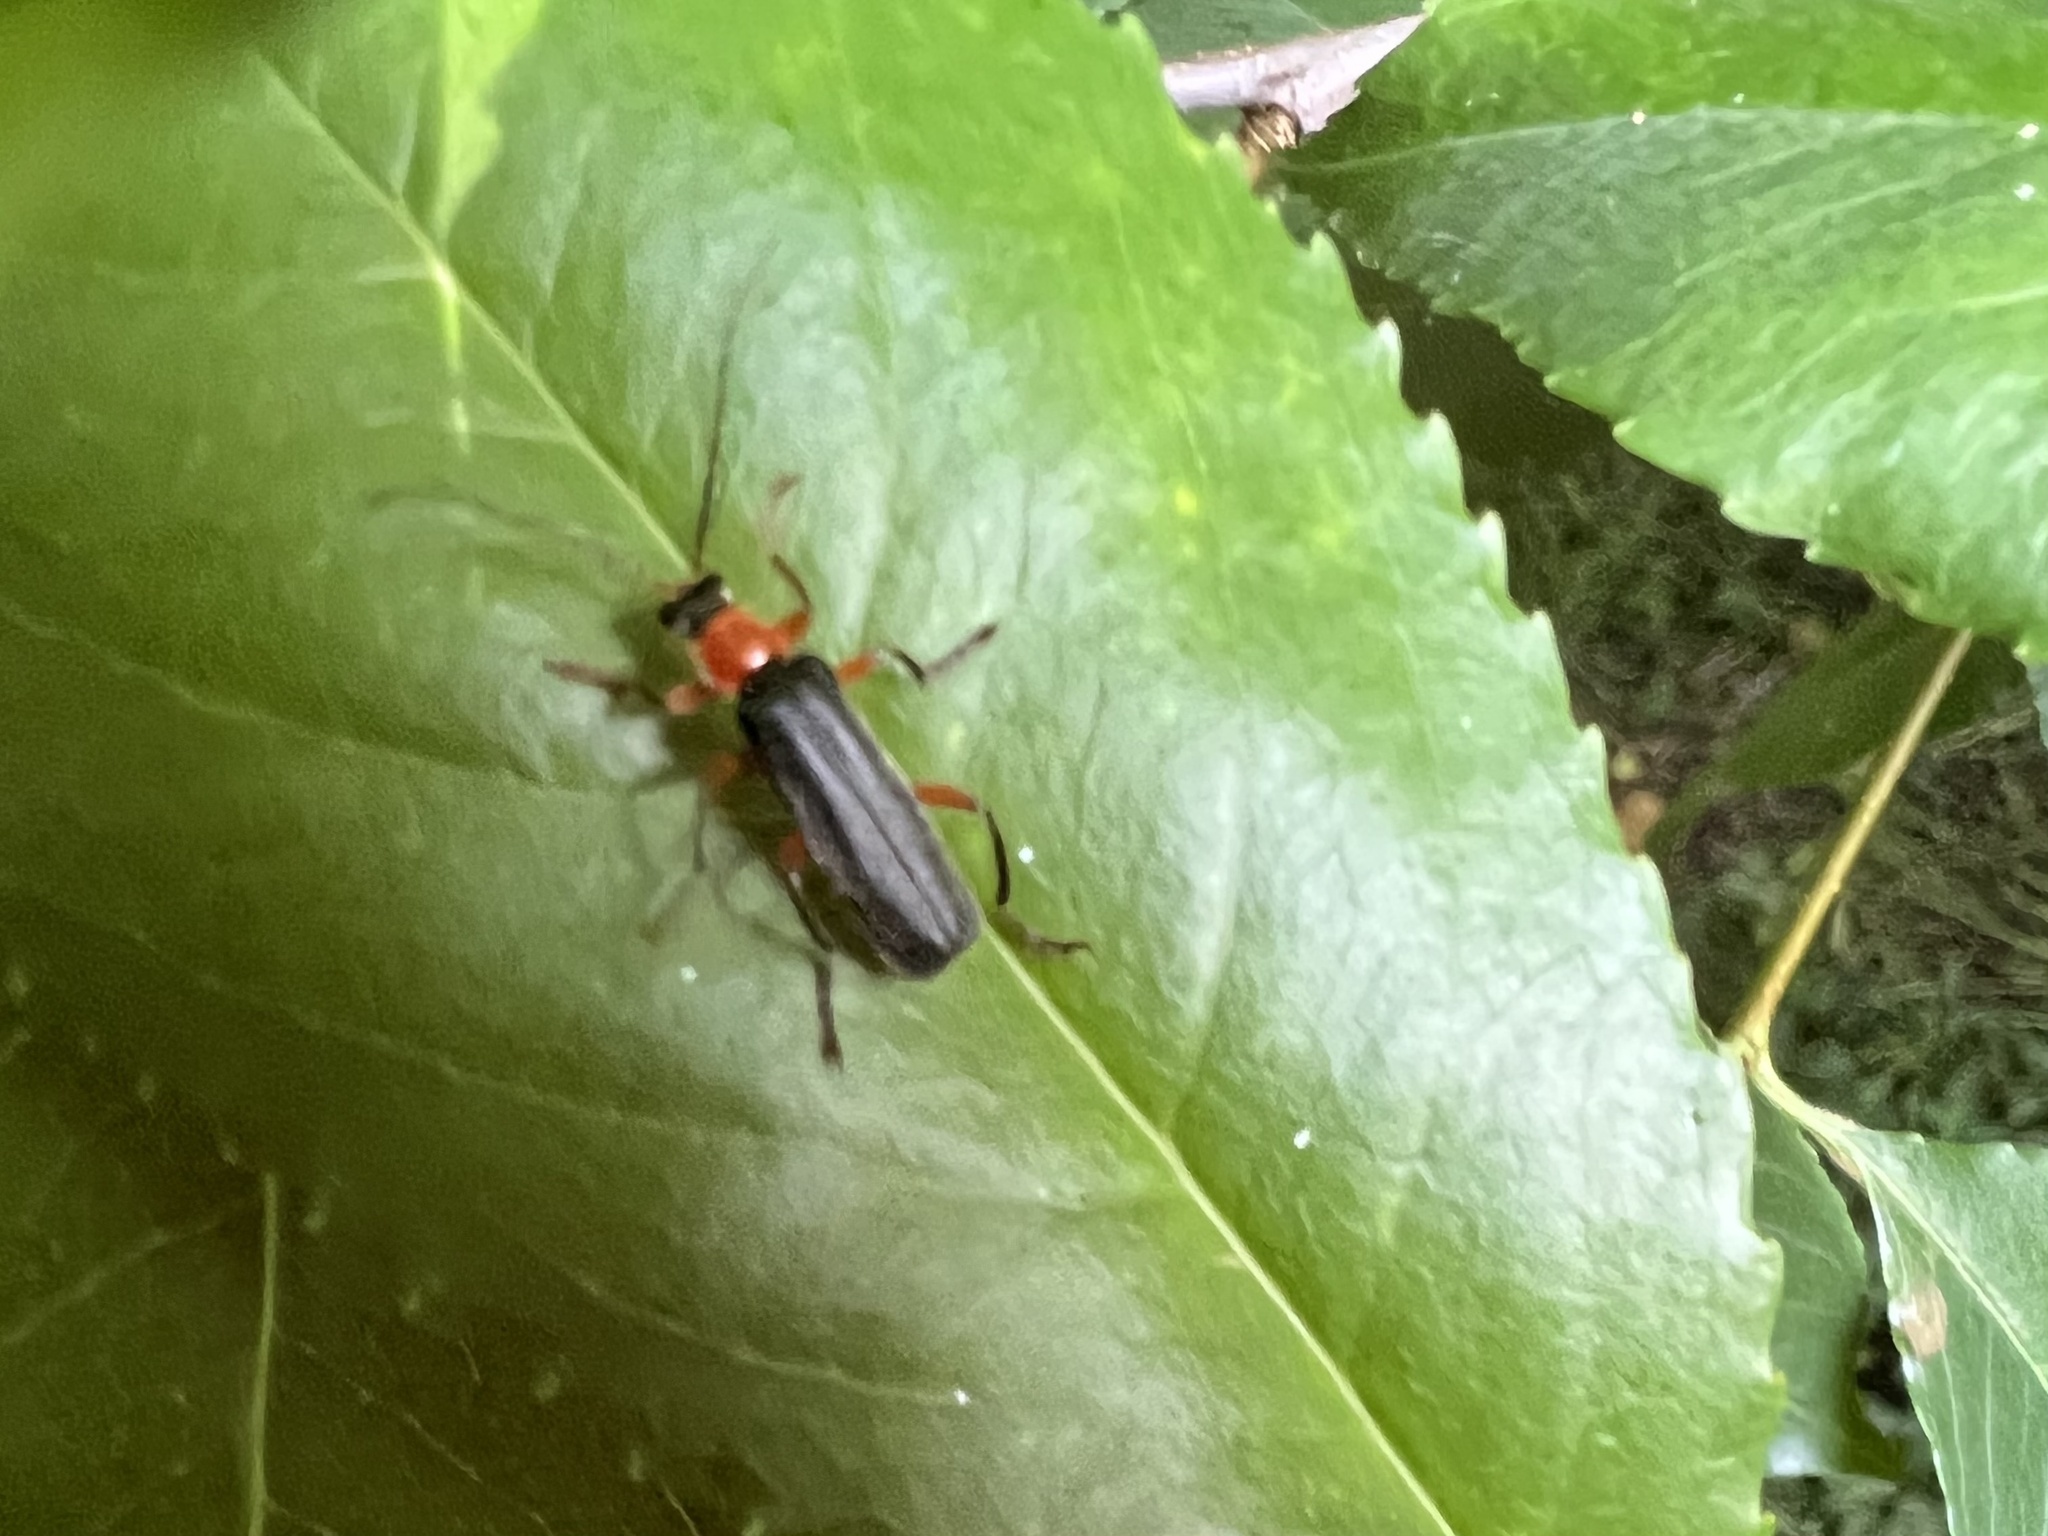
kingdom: Animalia
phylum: Arthropoda
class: Insecta
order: Coleoptera
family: Cantharidae
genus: Cantharis
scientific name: Cantharis pellucida
